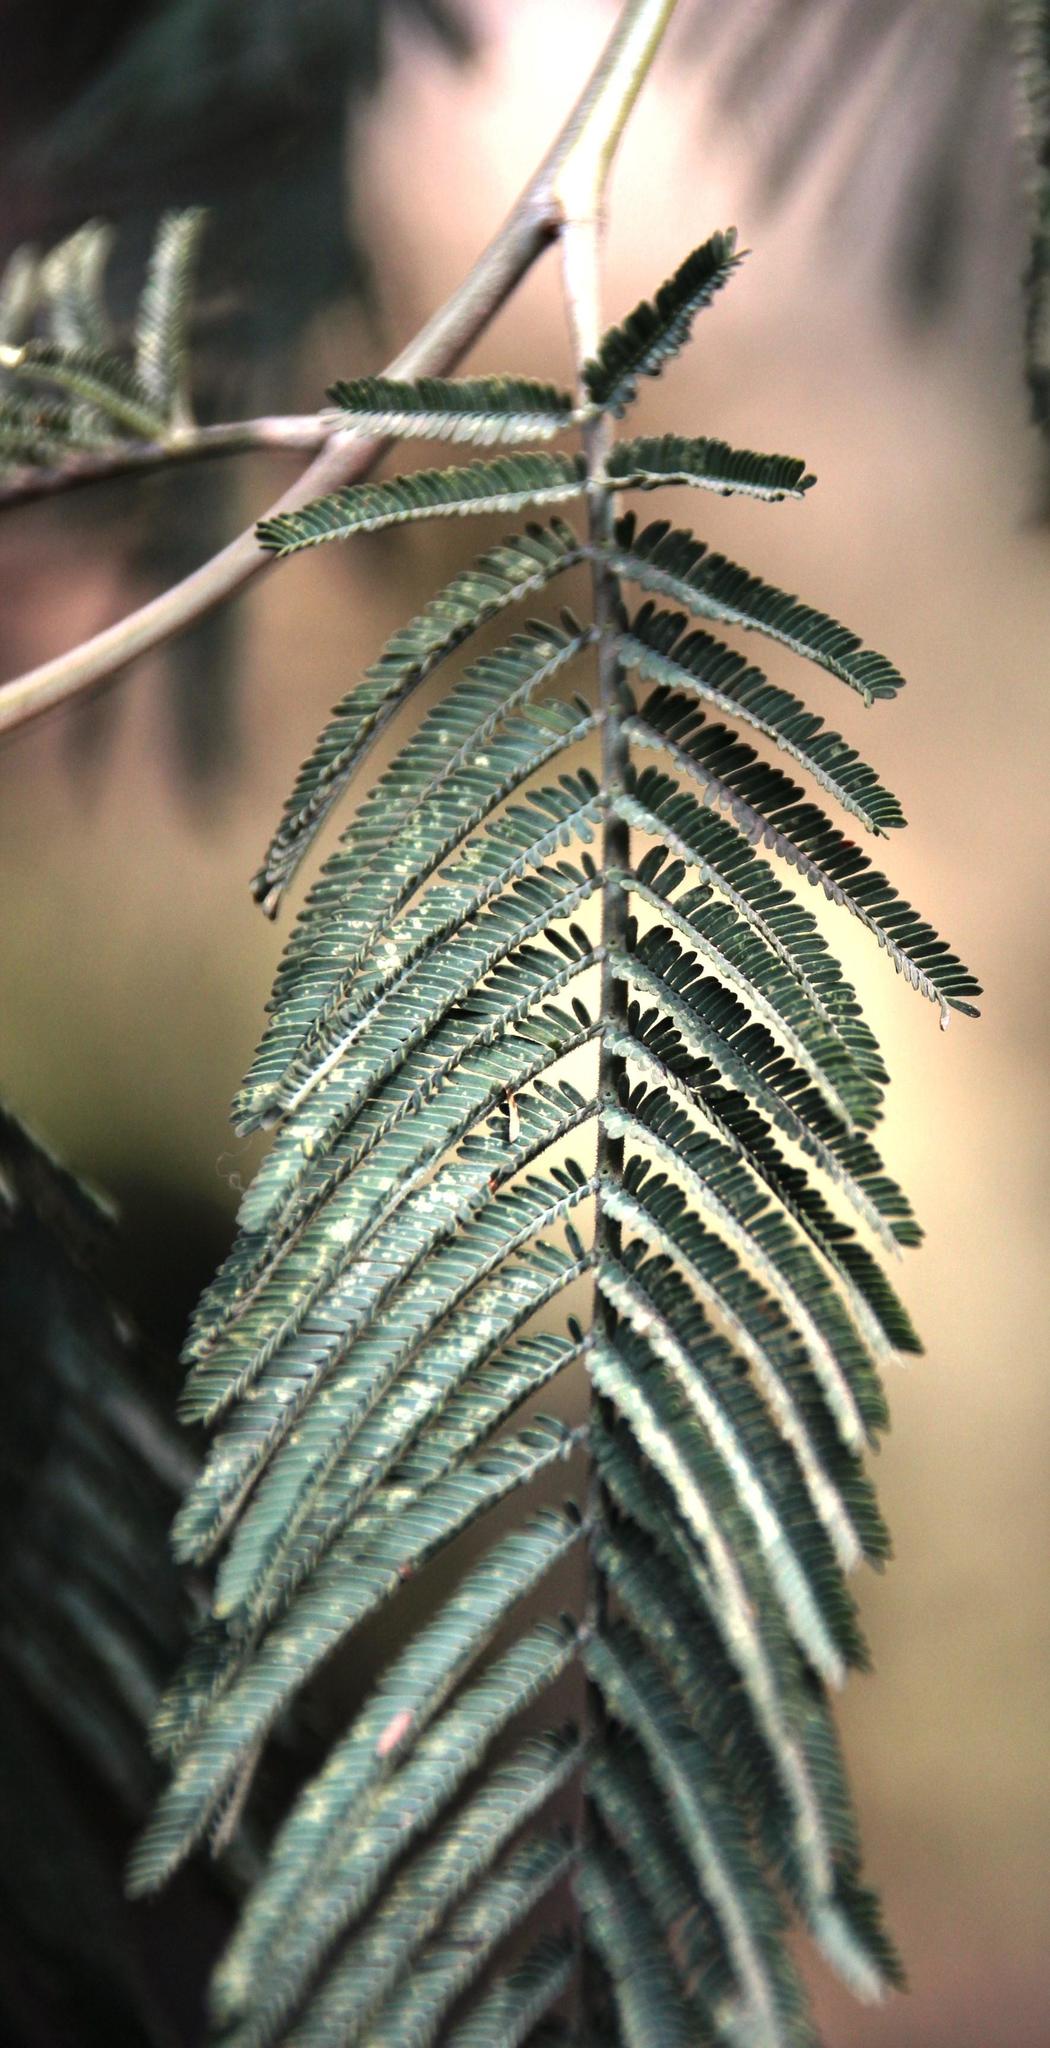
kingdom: Plantae
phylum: Tracheophyta
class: Magnoliopsida
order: Fabales
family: Fabaceae
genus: Acacia
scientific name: Acacia dealbata
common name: Silver wattle
